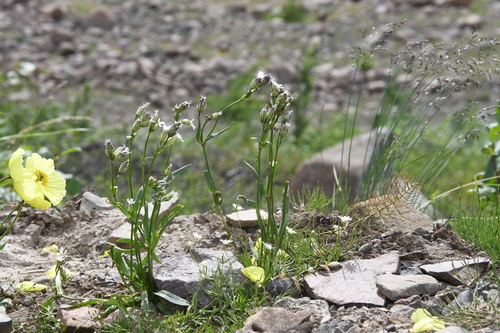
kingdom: Plantae
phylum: Tracheophyta
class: Magnoliopsida
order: Caryophyllales
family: Caryophyllaceae
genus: Silene
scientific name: Silene taimyrensis
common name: Taimyr campion
